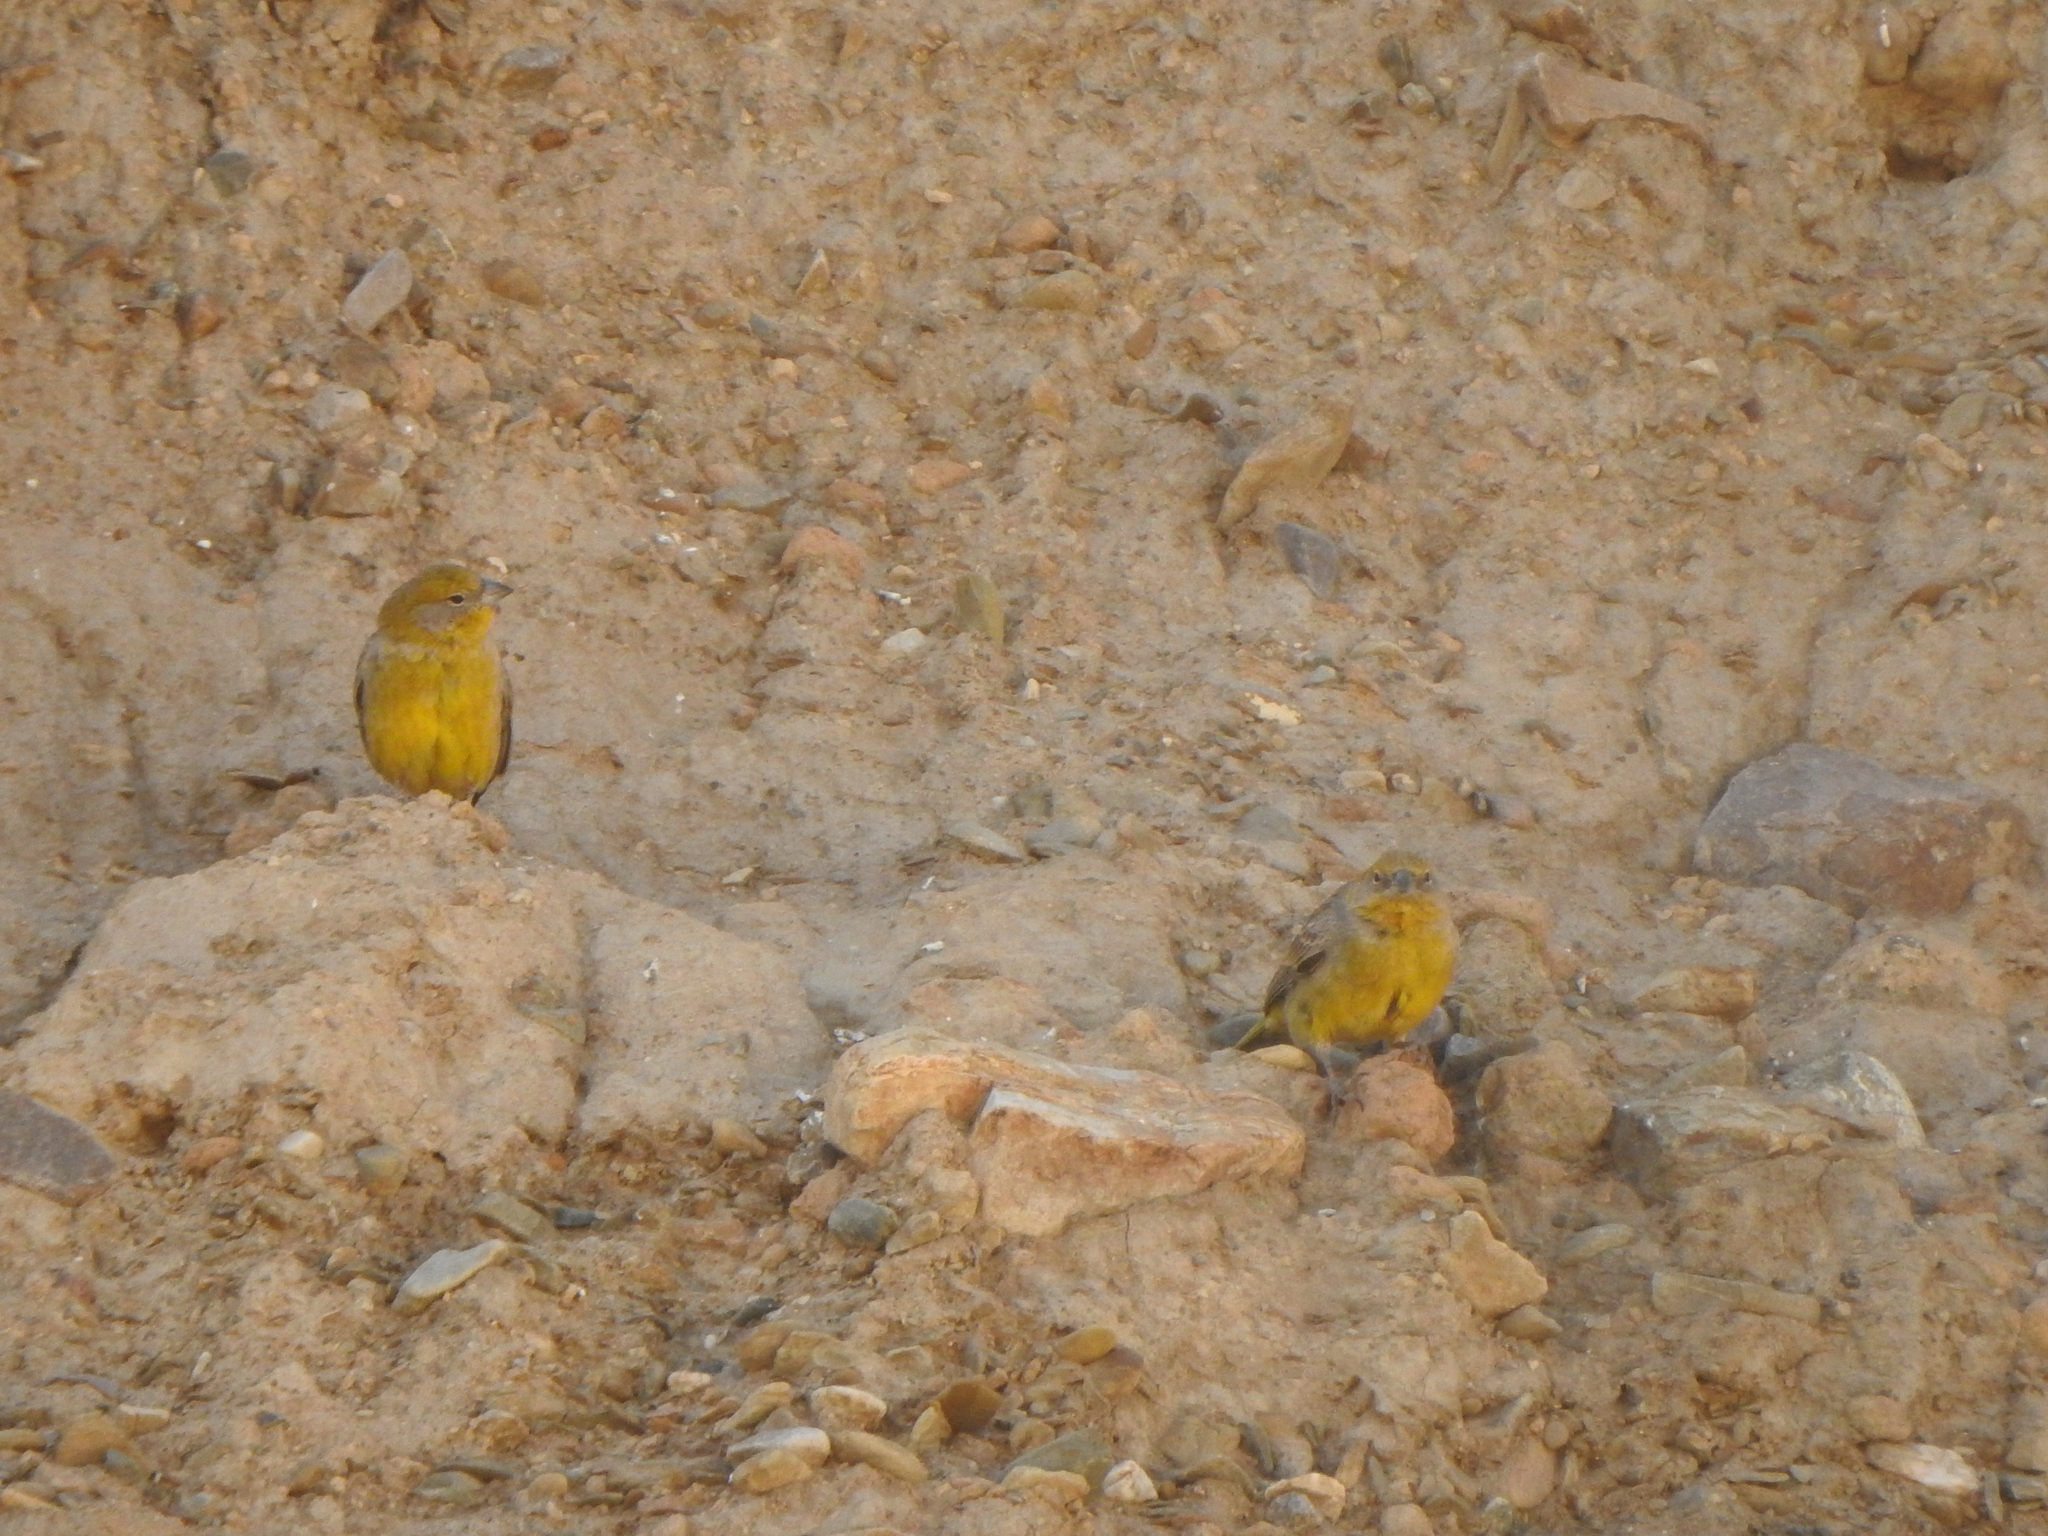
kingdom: Animalia
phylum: Chordata
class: Aves
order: Passeriformes
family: Thraupidae
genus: Sicalis
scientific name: Sicalis uropigyalis
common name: Bright-rumped yellow finch
